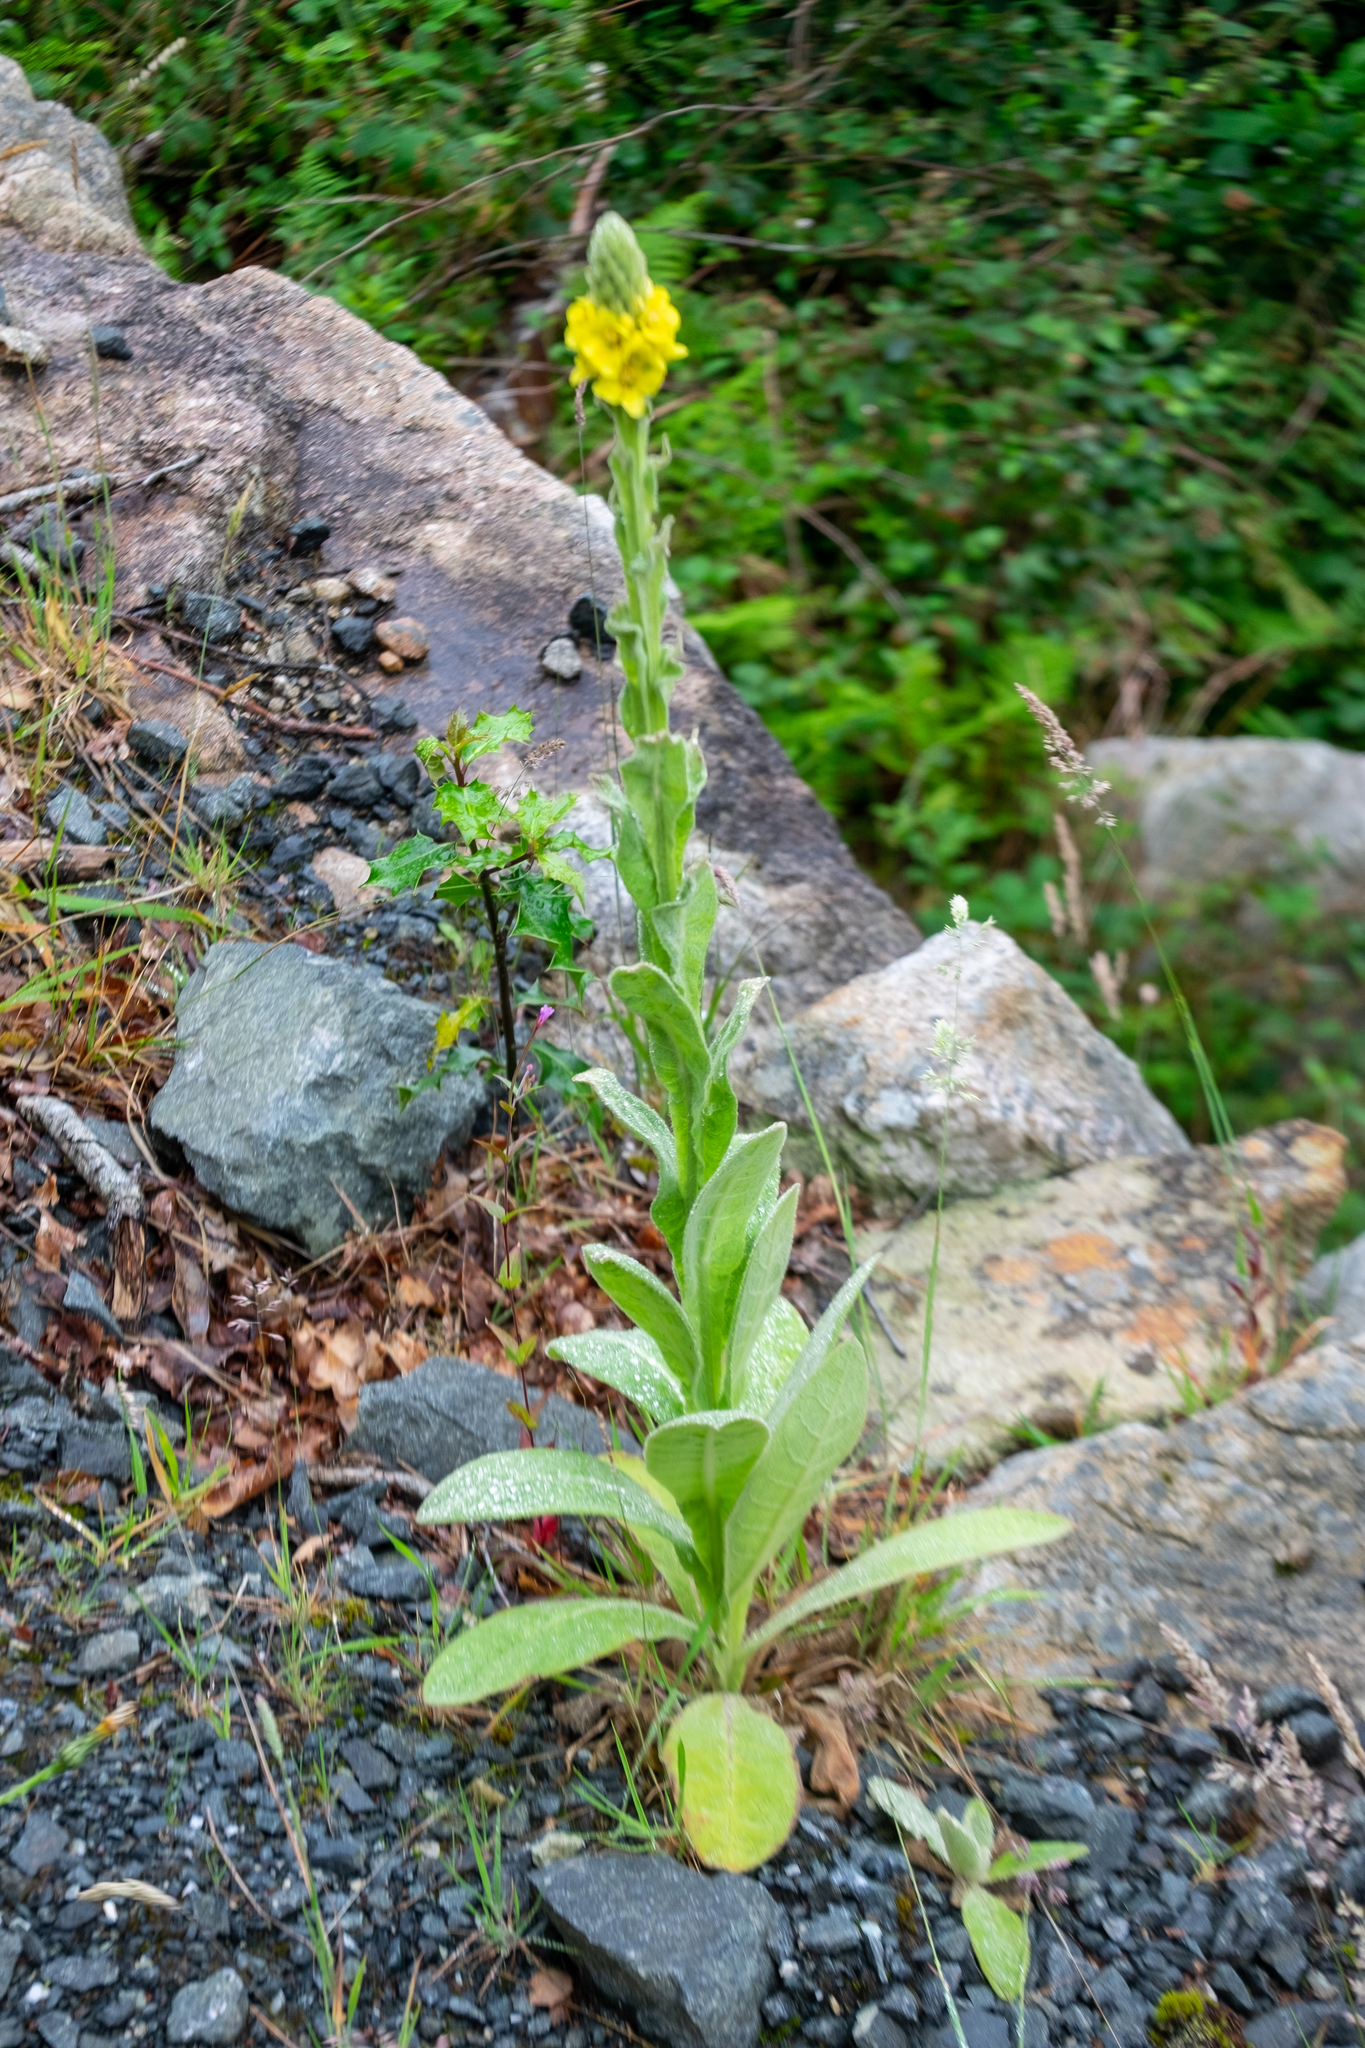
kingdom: Plantae
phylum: Tracheophyta
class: Magnoliopsida
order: Lamiales
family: Scrophulariaceae
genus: Verbascum
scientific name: Verbascum thapsus
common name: Common mullein
